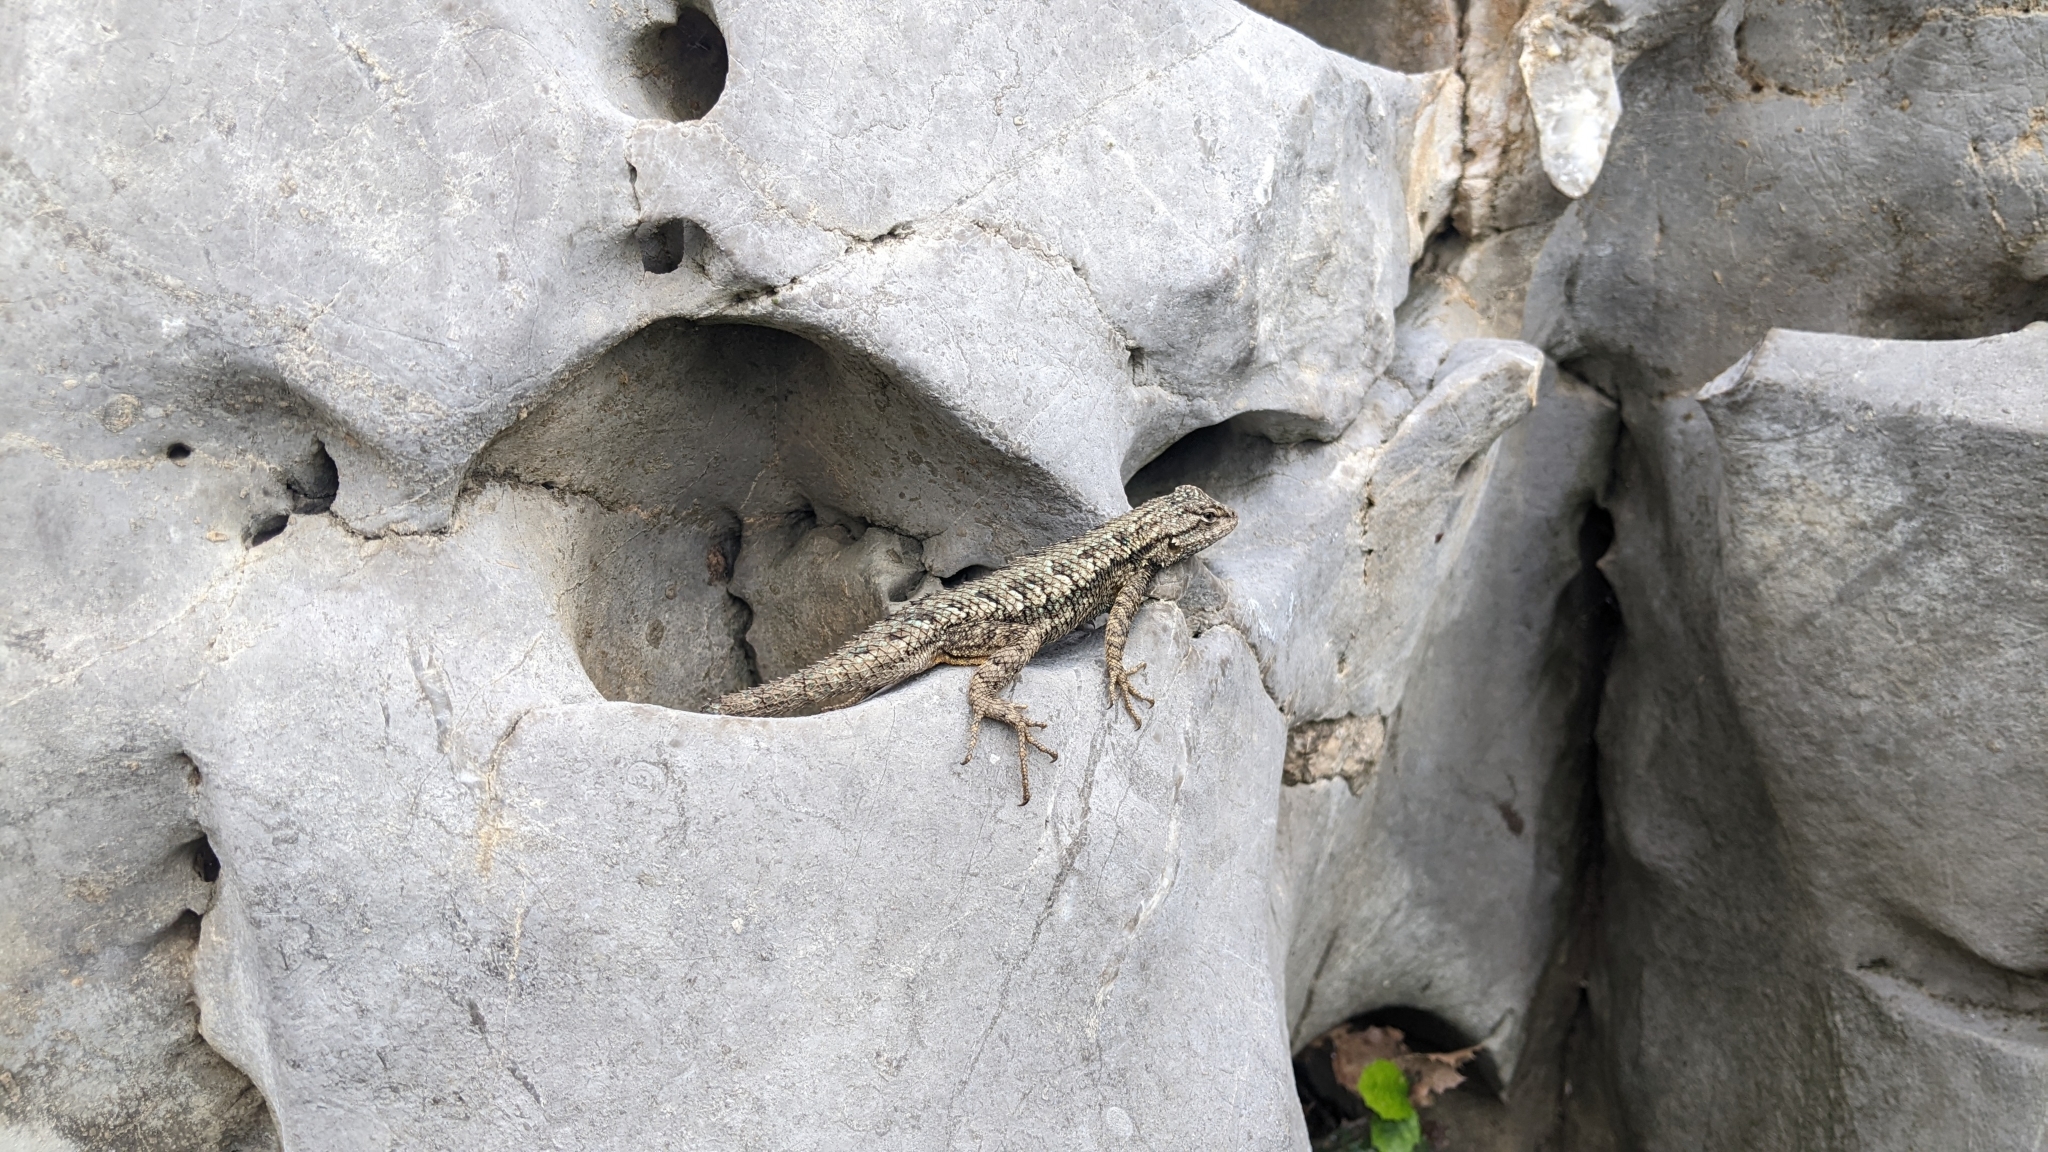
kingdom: Animalia
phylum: Chordata
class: Squamata
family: Phrynosomatidae
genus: Sceloporus
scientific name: Sceloporus occidentalis
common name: Western fence lizard
